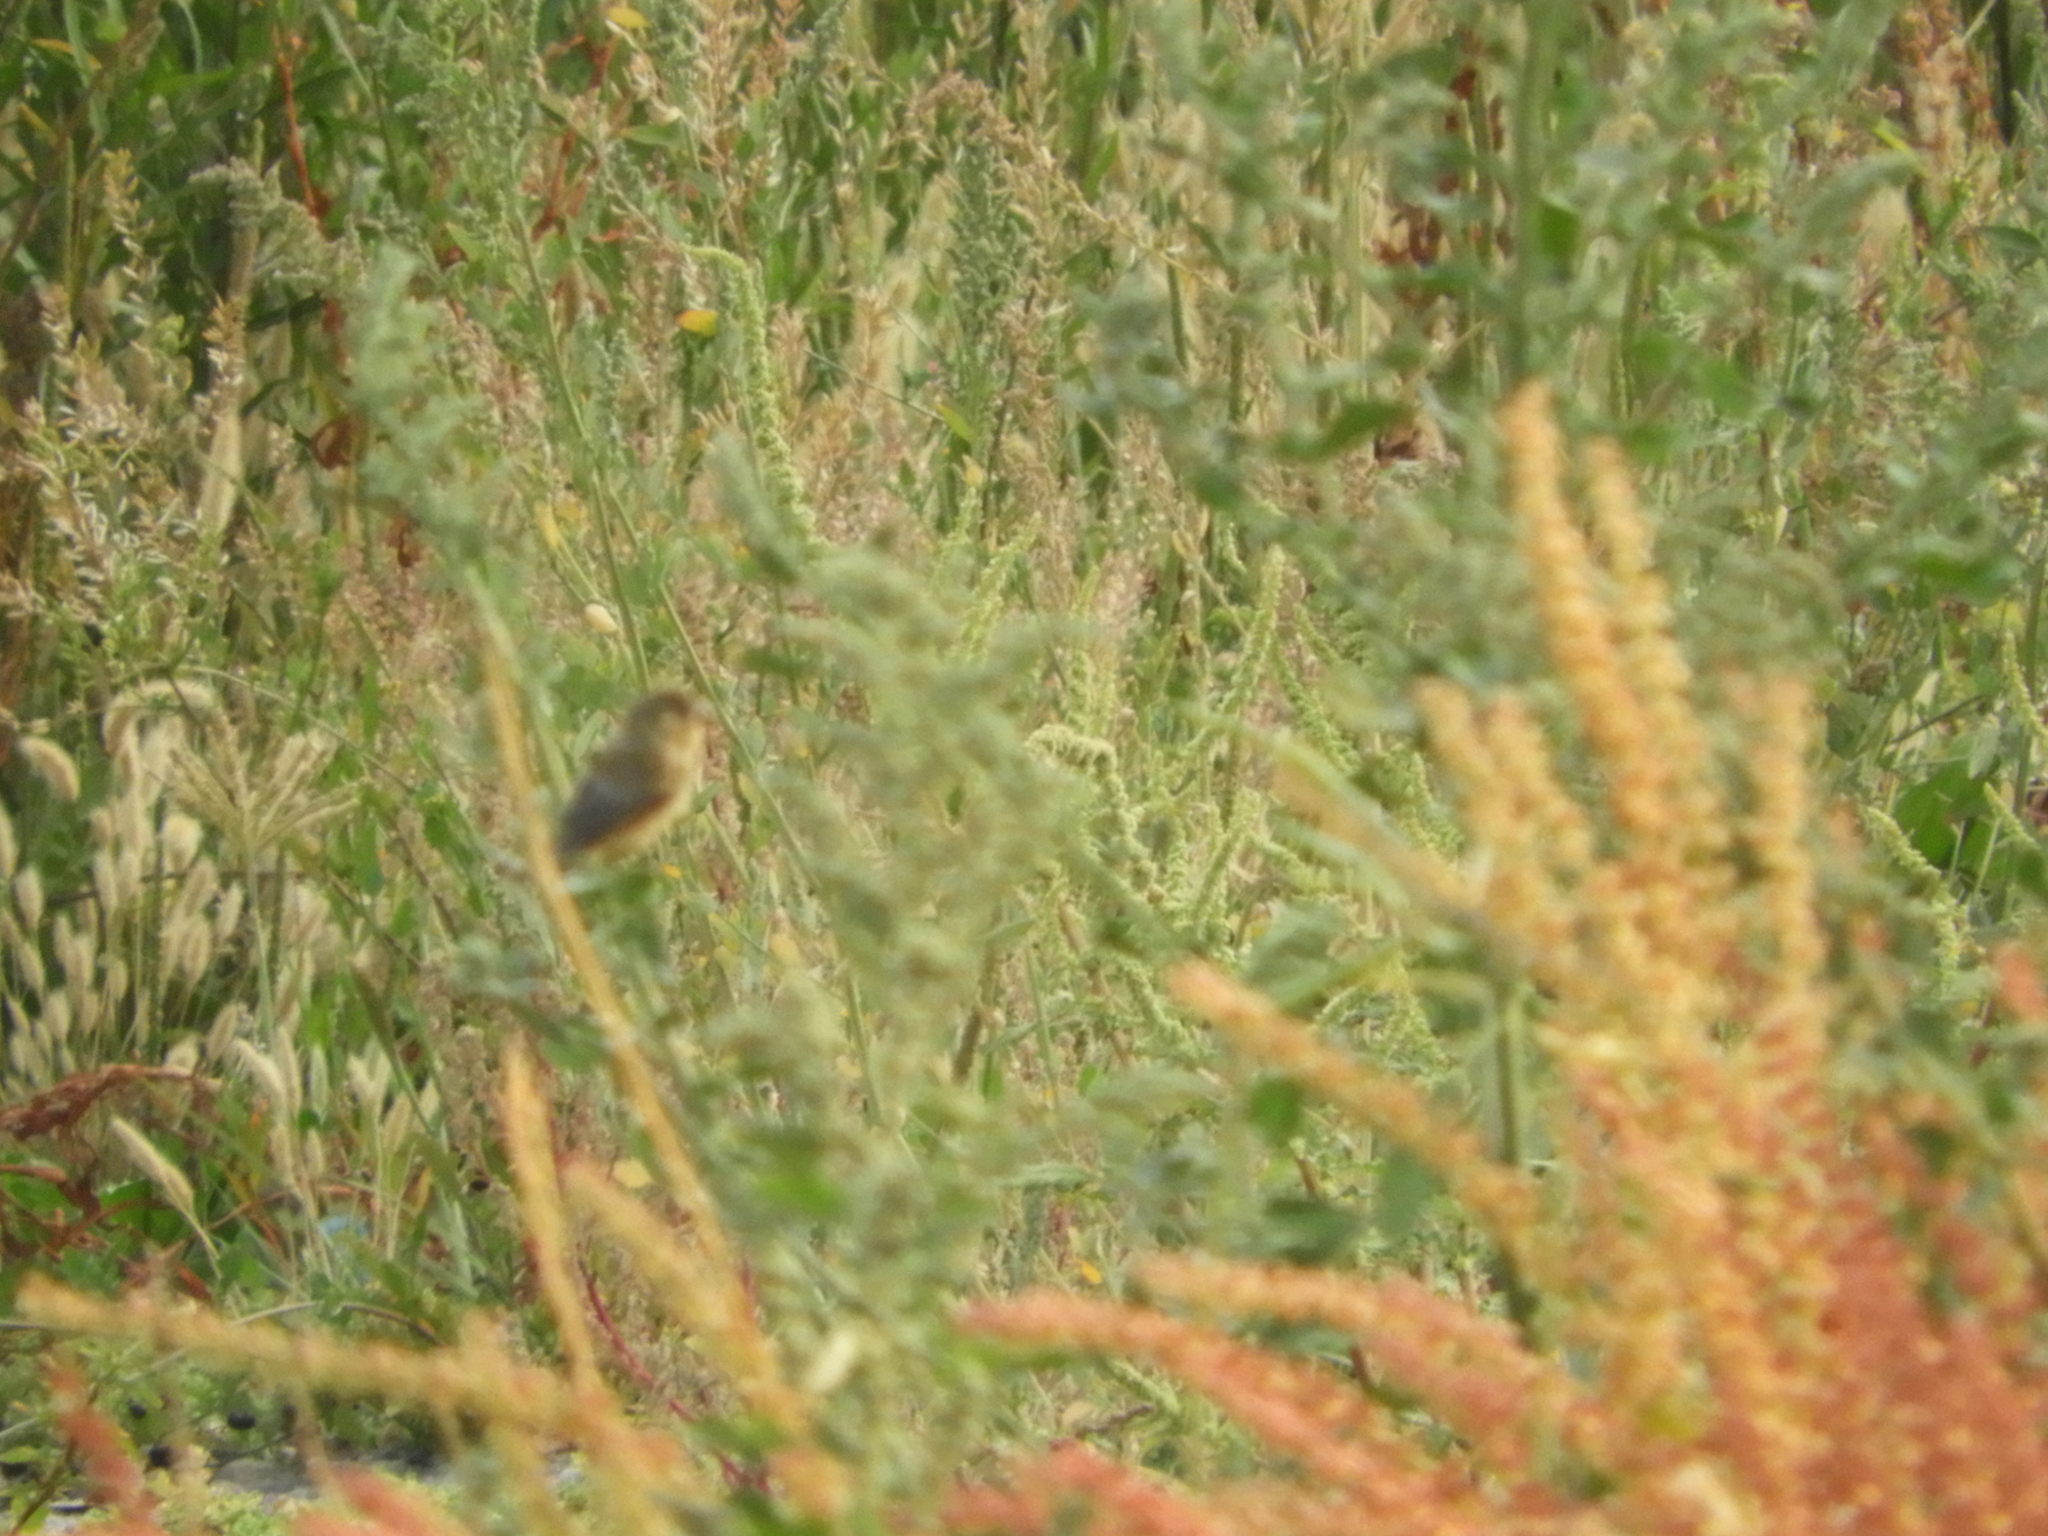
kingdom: Animalia
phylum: Chordata
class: Aves
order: Passeriformes
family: Fringillidae
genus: Spinus
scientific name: Spinus psaltria
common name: Lesser goldfinch
